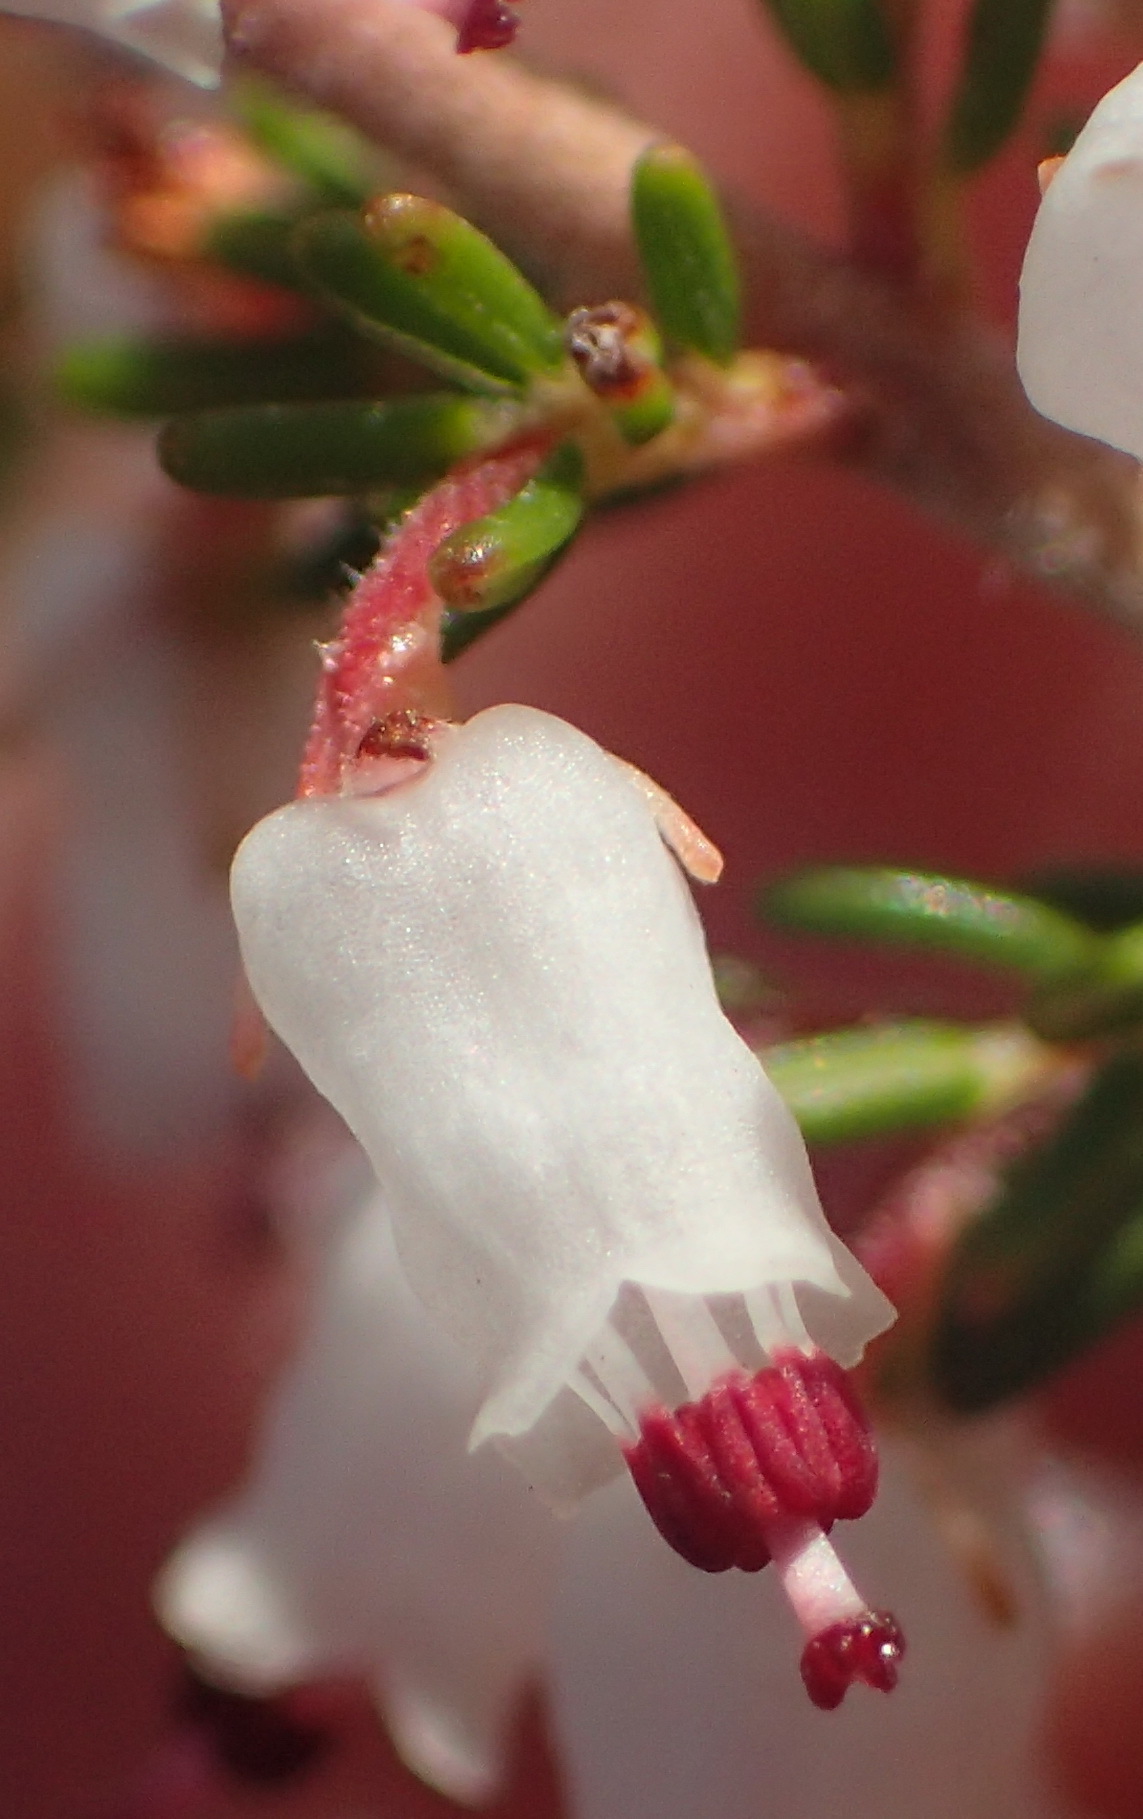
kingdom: Plantae
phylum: Tracheophyta
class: Magnoliopsida
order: Ericales
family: Ericaceae
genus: Erica
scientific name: Erica trivialis
